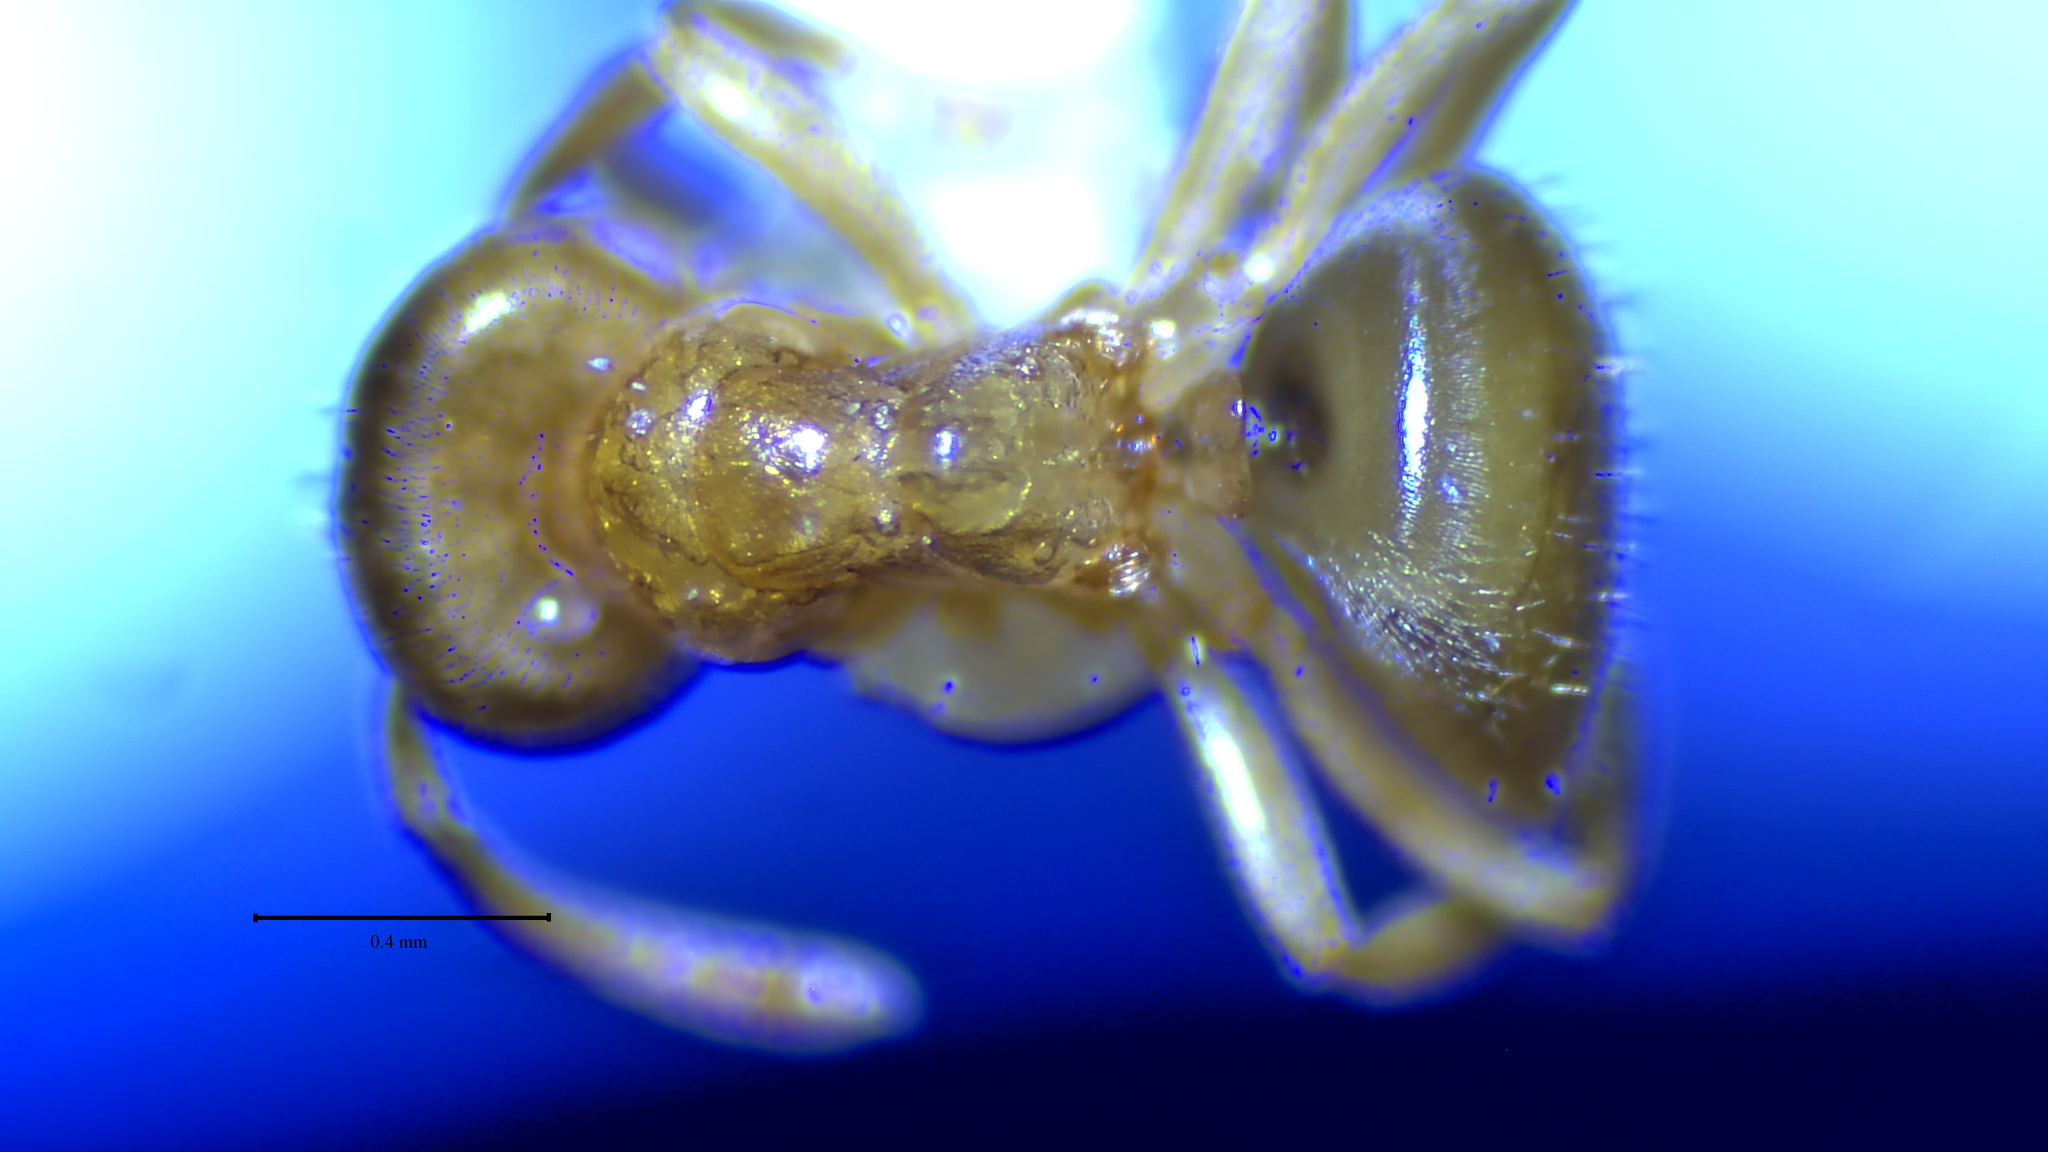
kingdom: Animalia
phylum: Arthropoda
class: Insecta
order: Hymenoptera
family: Formicidae
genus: Lasius
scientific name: Lasius
